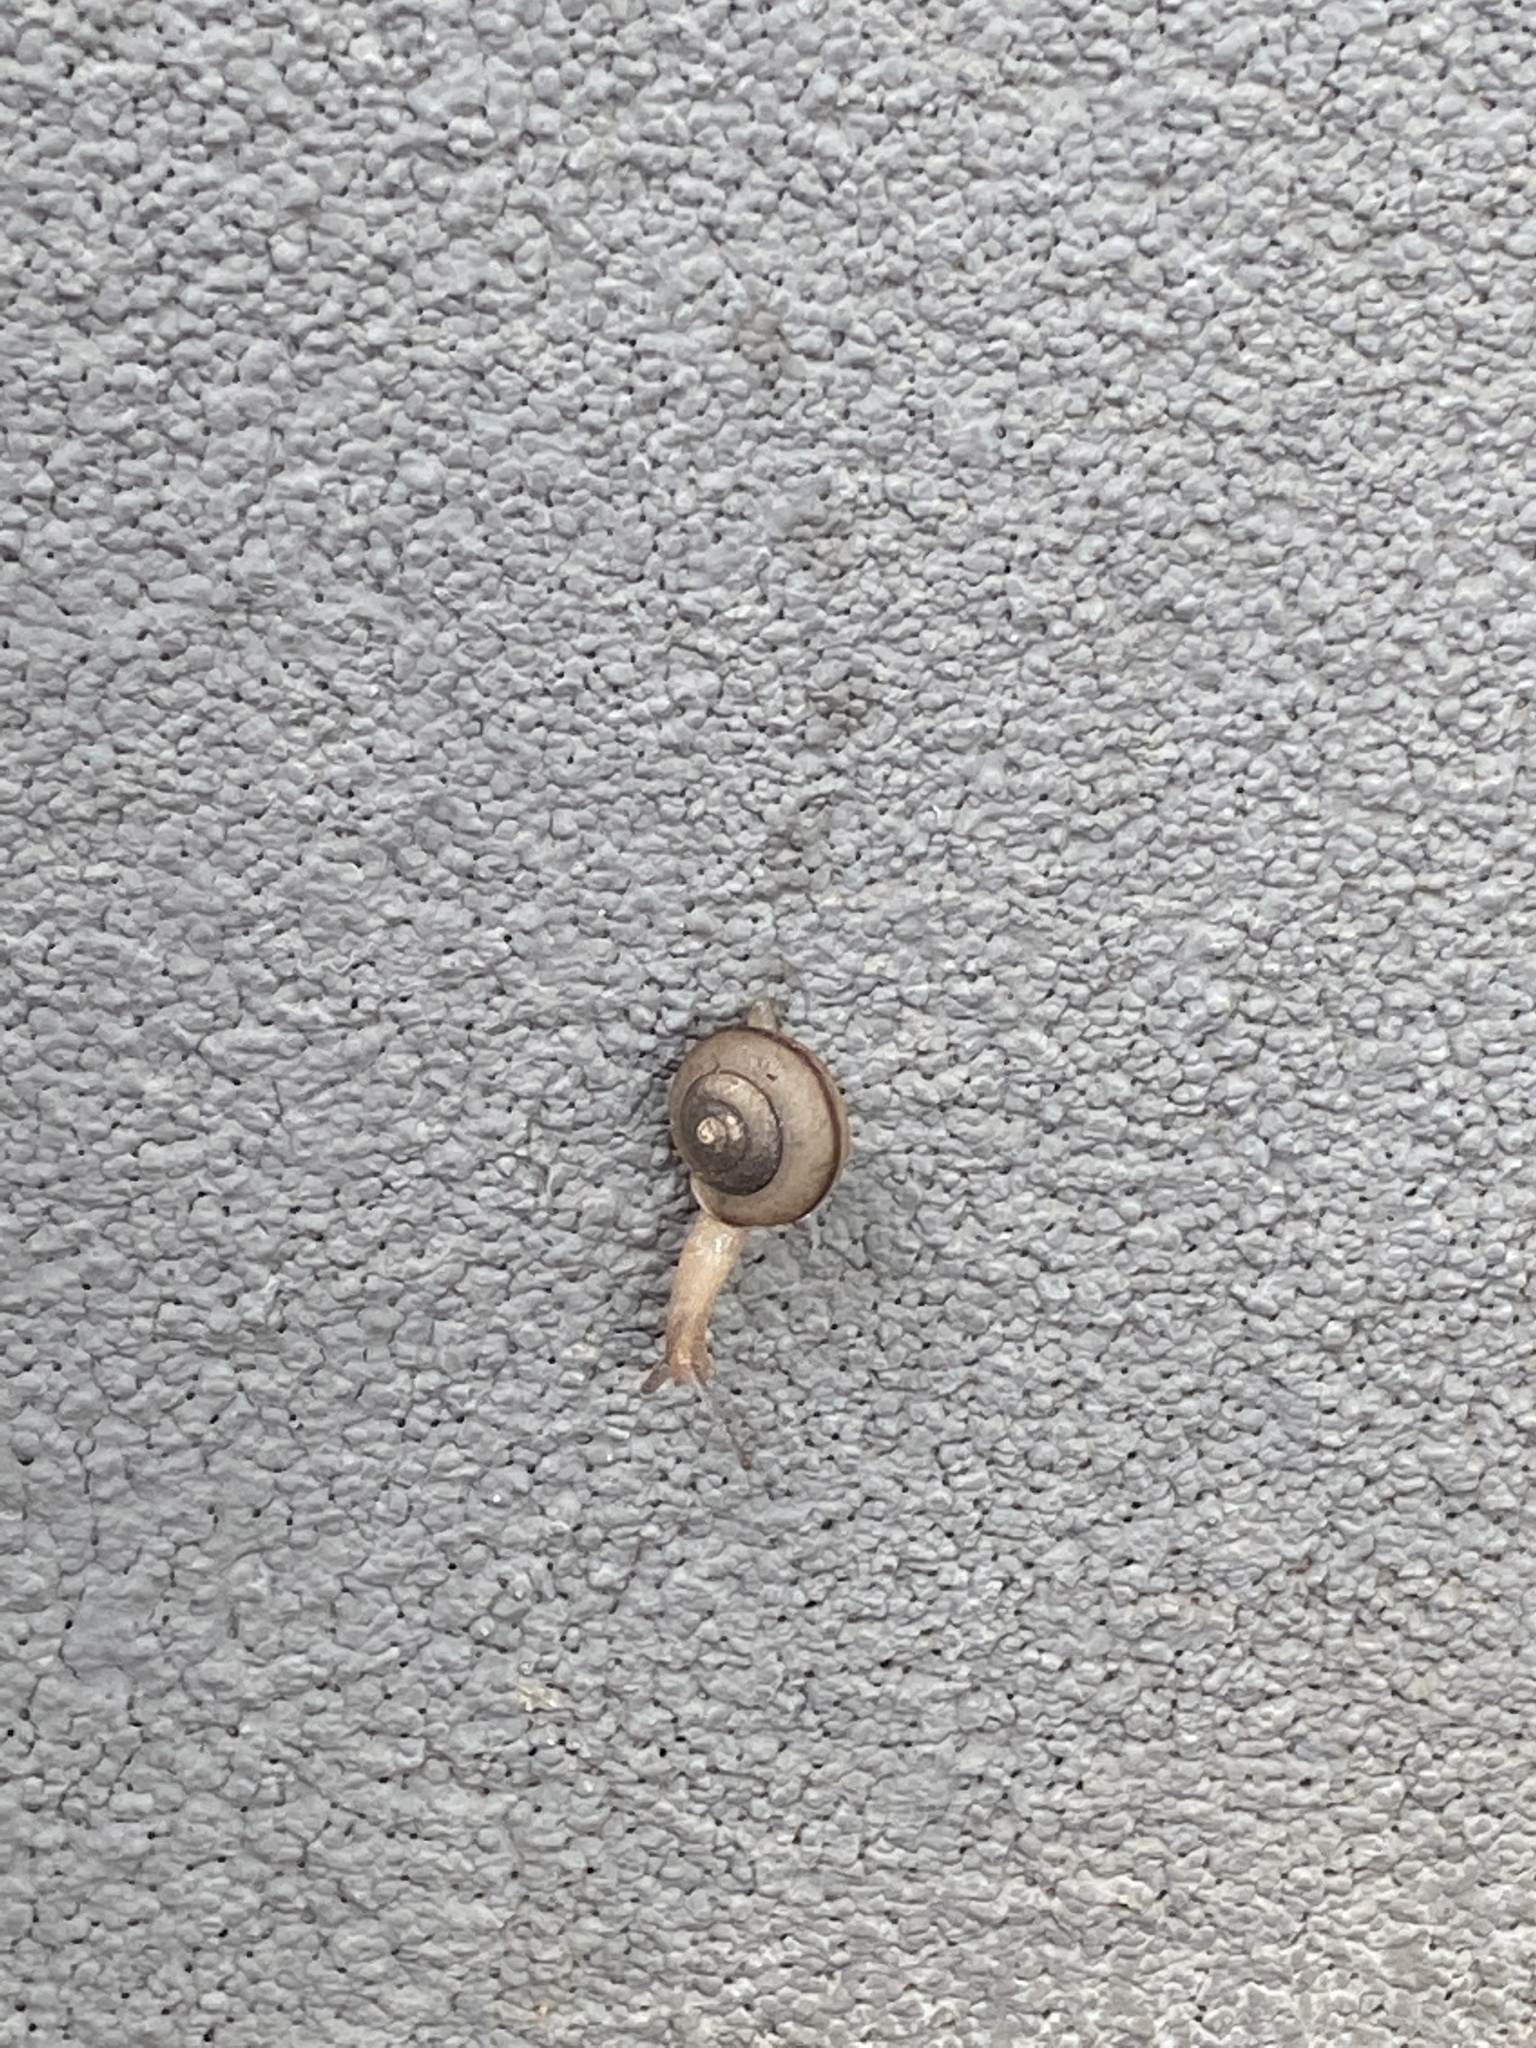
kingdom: Animalia
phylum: Mollusca
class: Gastropoda
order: Stylommatophora
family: Camaenidae
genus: Bradybaena
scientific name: Bradybaena similaris
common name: Asian trampsnail
